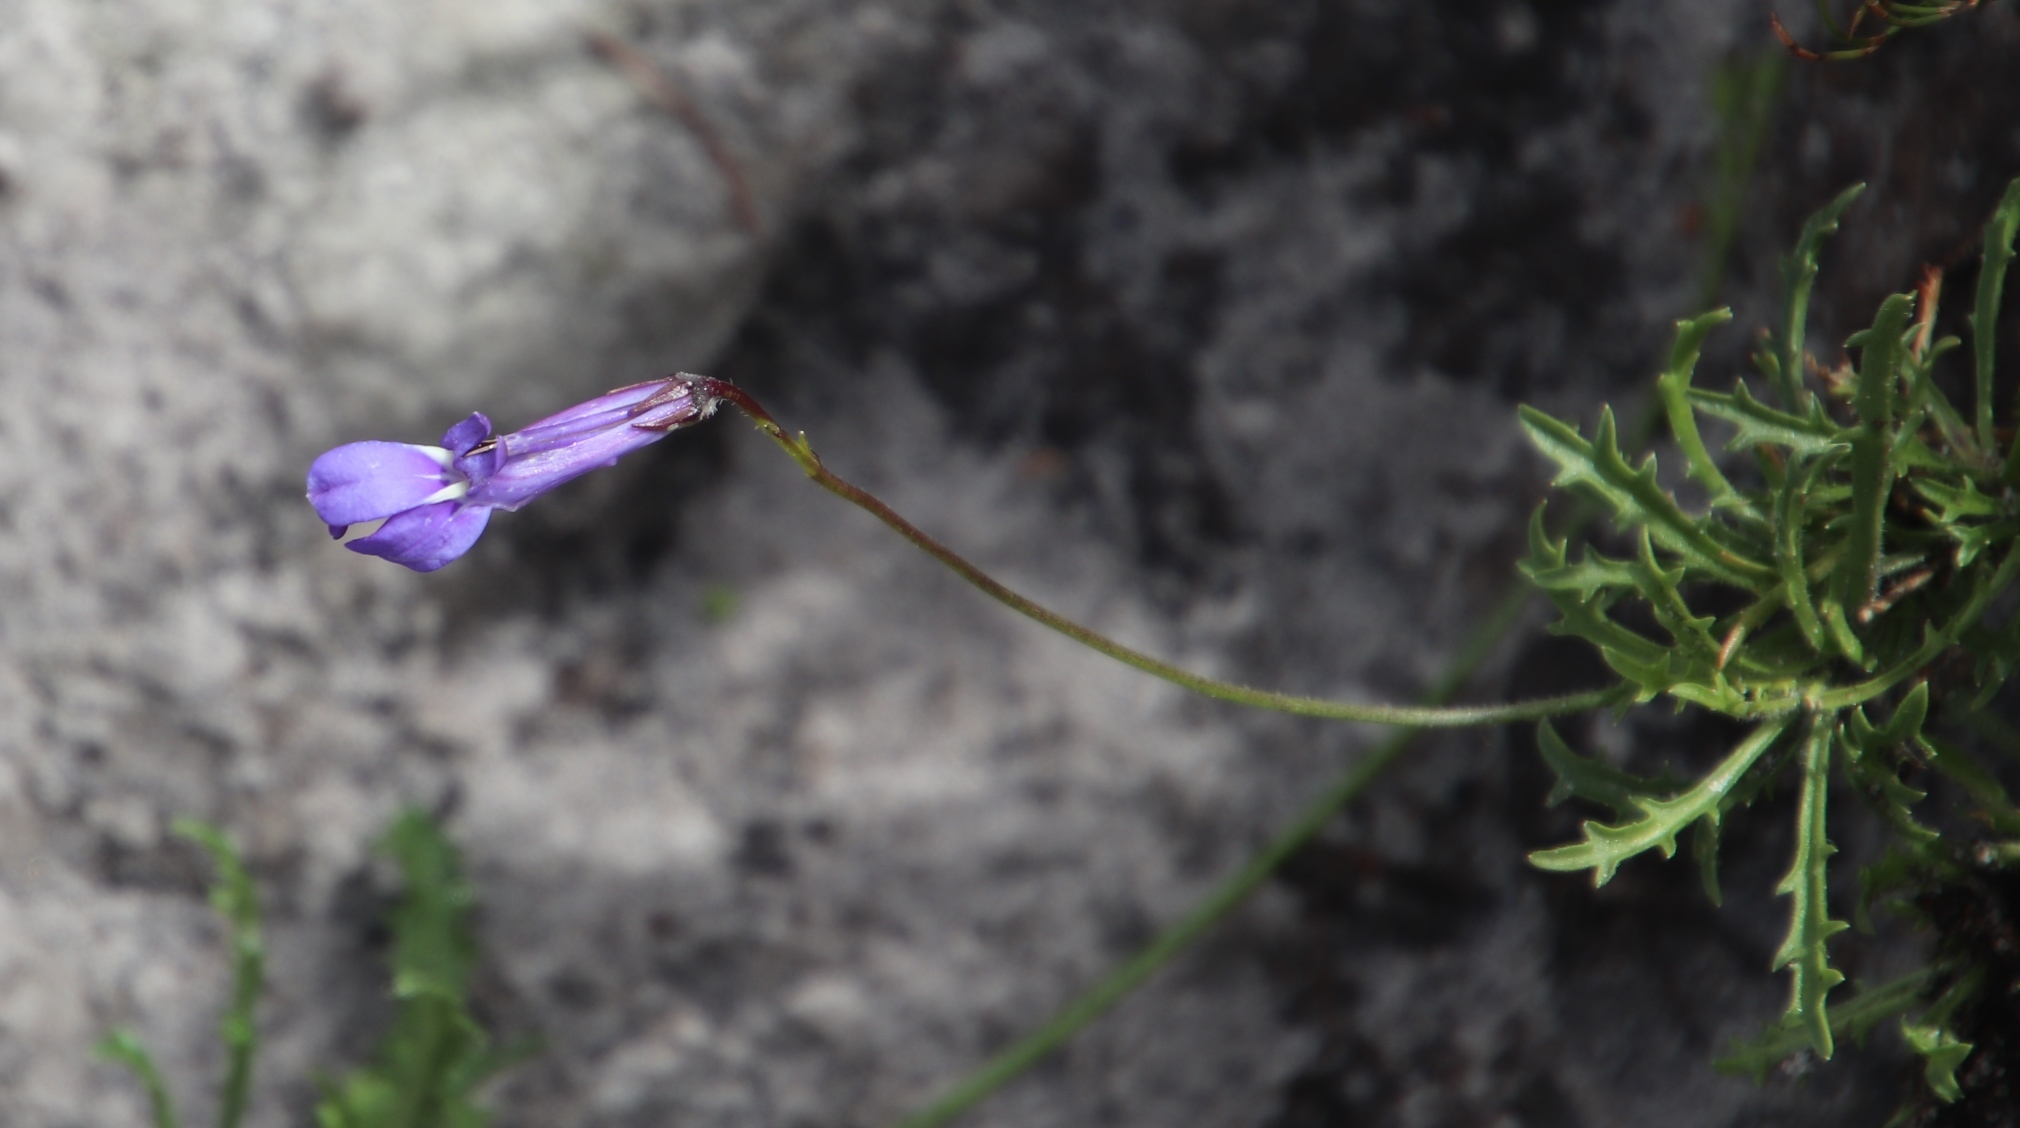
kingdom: Plantae
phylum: Tracheophyta
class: Magnoliopsida
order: Asterales
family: Campanulaceae
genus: Lobelia
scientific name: Lobelia coronopifolia
